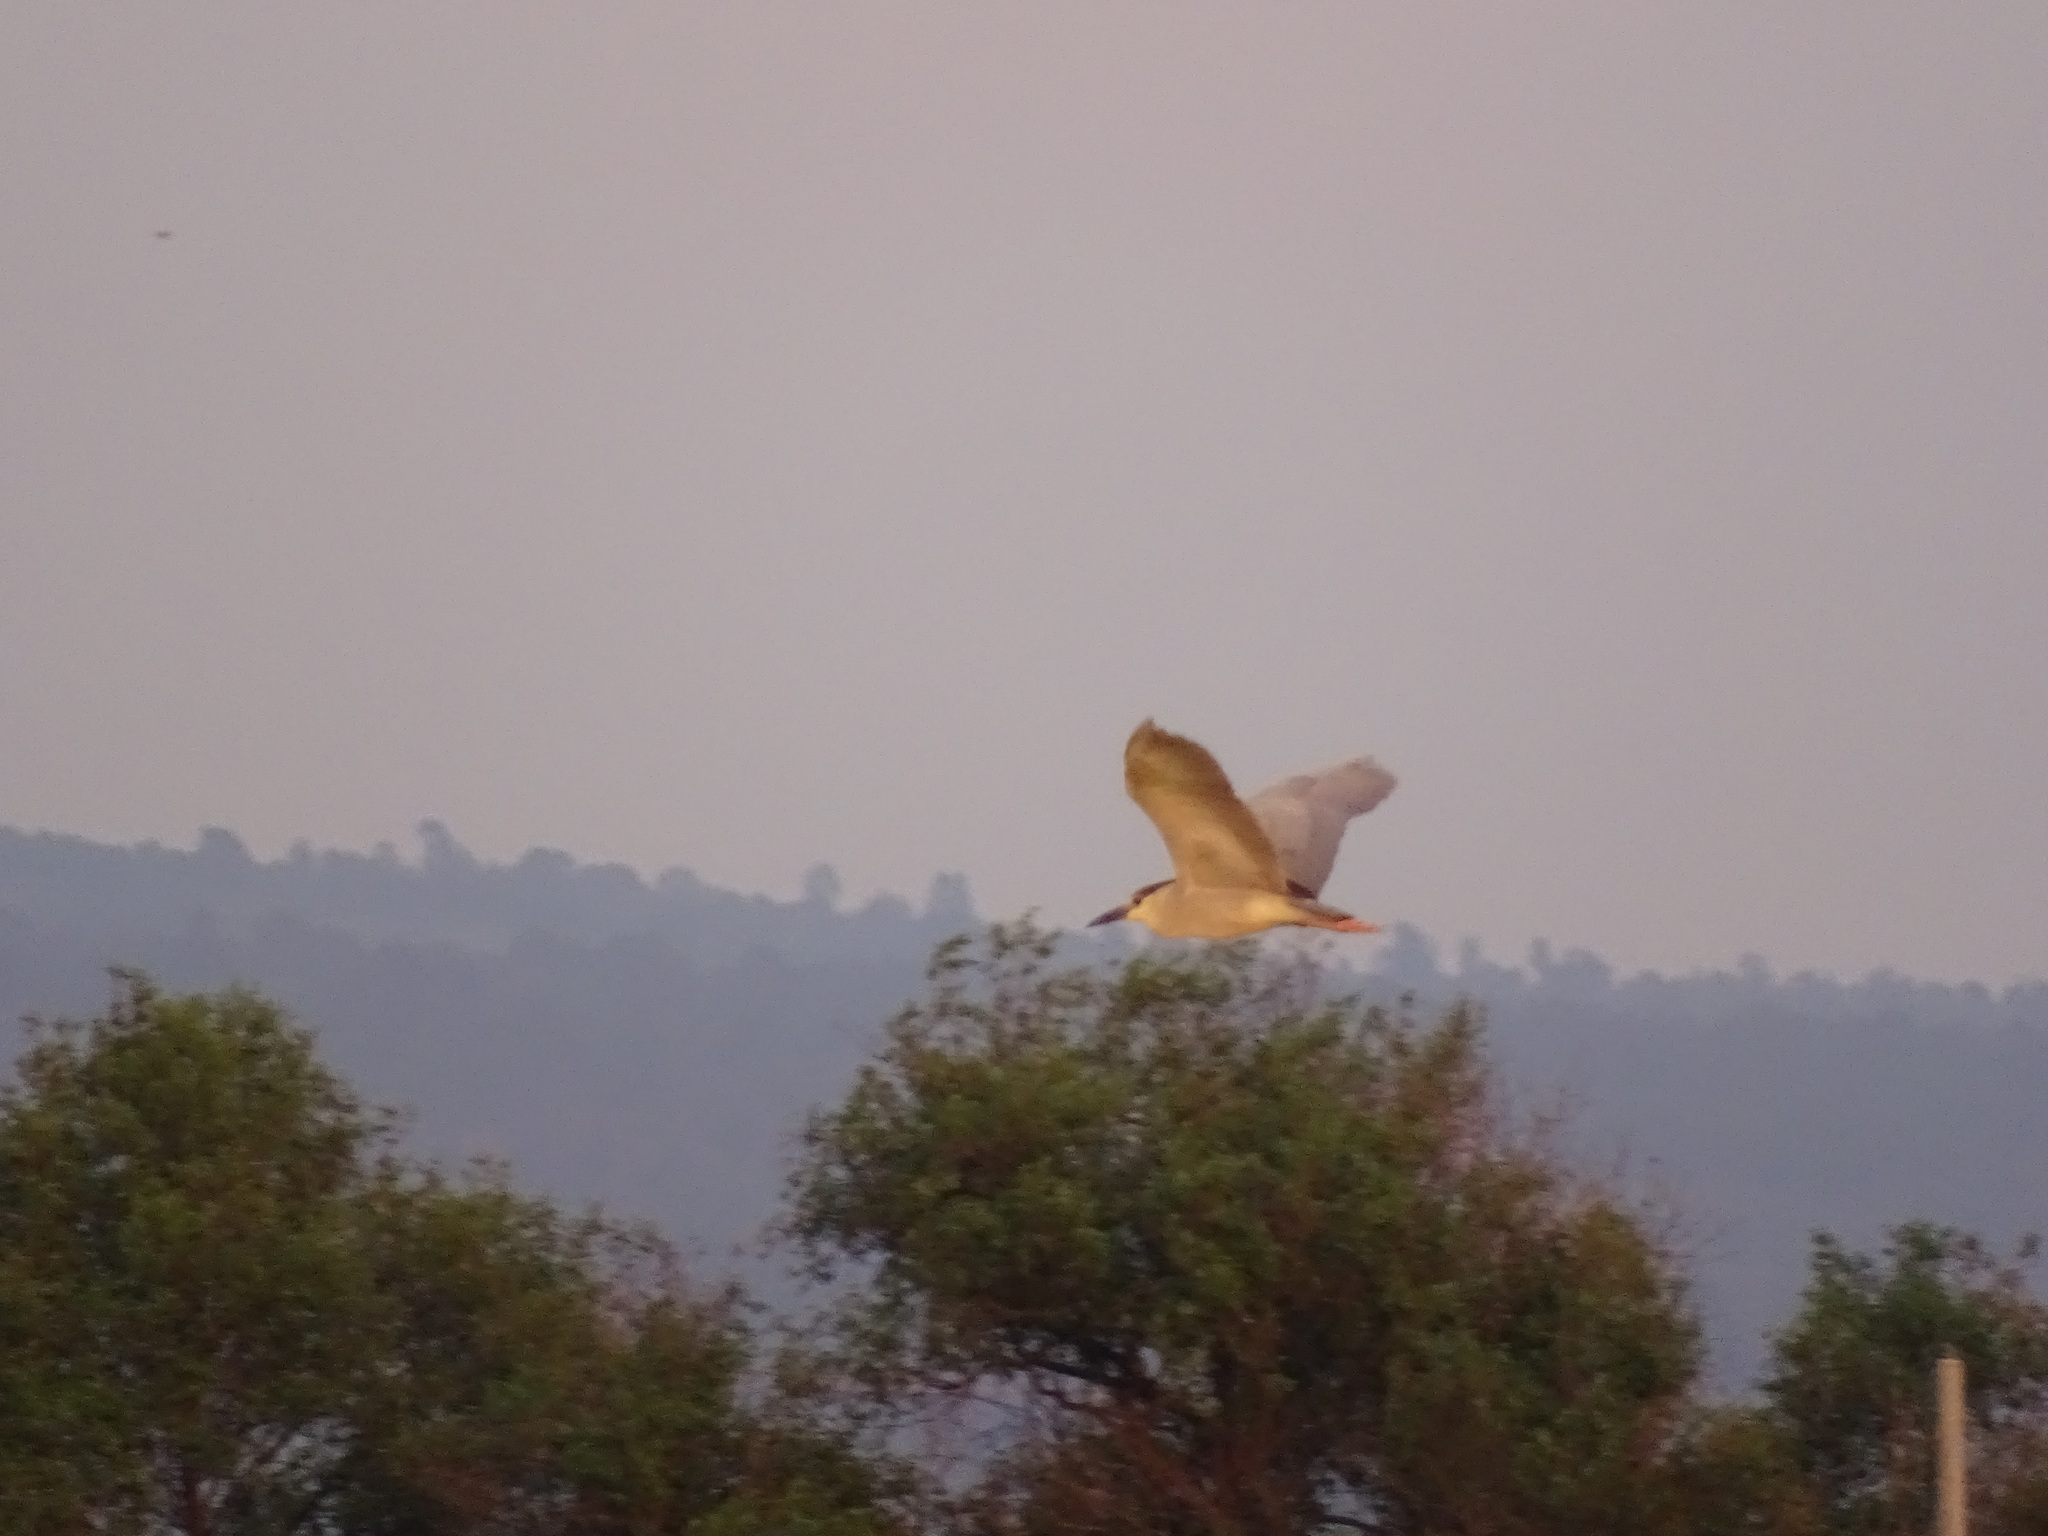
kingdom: Animalia
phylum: Chordata
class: Aves
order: Pelecaniformes
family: Ardeidae
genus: Nycticorax
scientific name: Nycticorax nycticorax
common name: Black-crowned night heron
